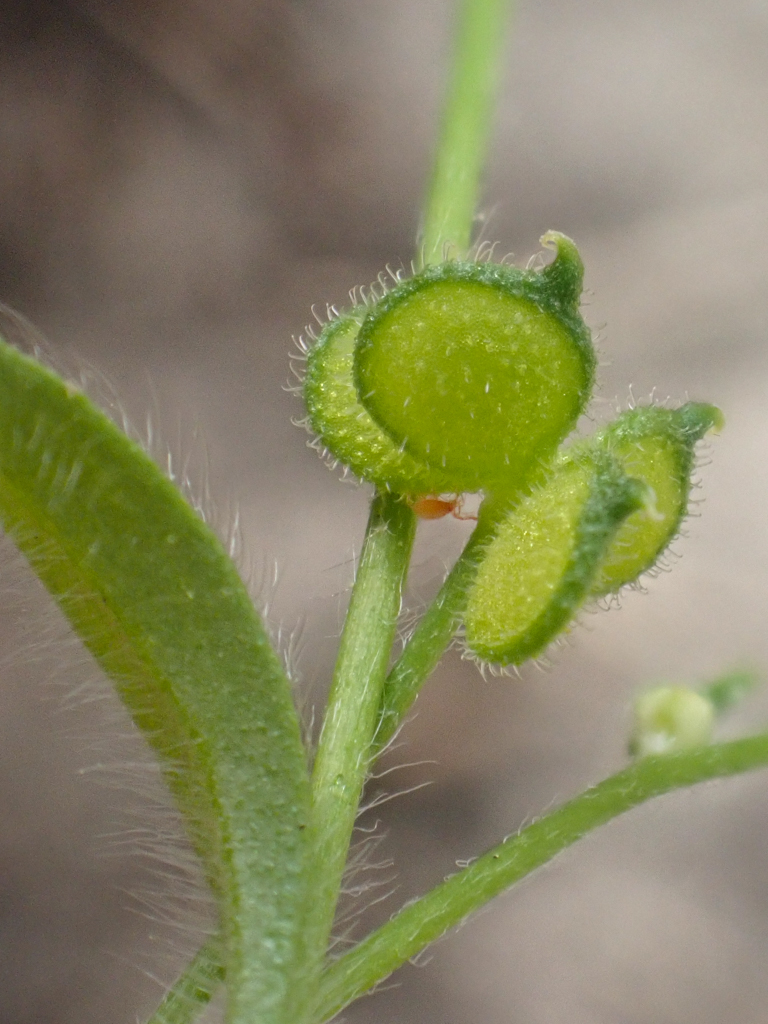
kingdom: Plantae
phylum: Tracheophyta
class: Magnoliopsida
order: Ranunculales
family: Ranunculaceae
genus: Ranunculus
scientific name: Ranunculus hebecarpus
